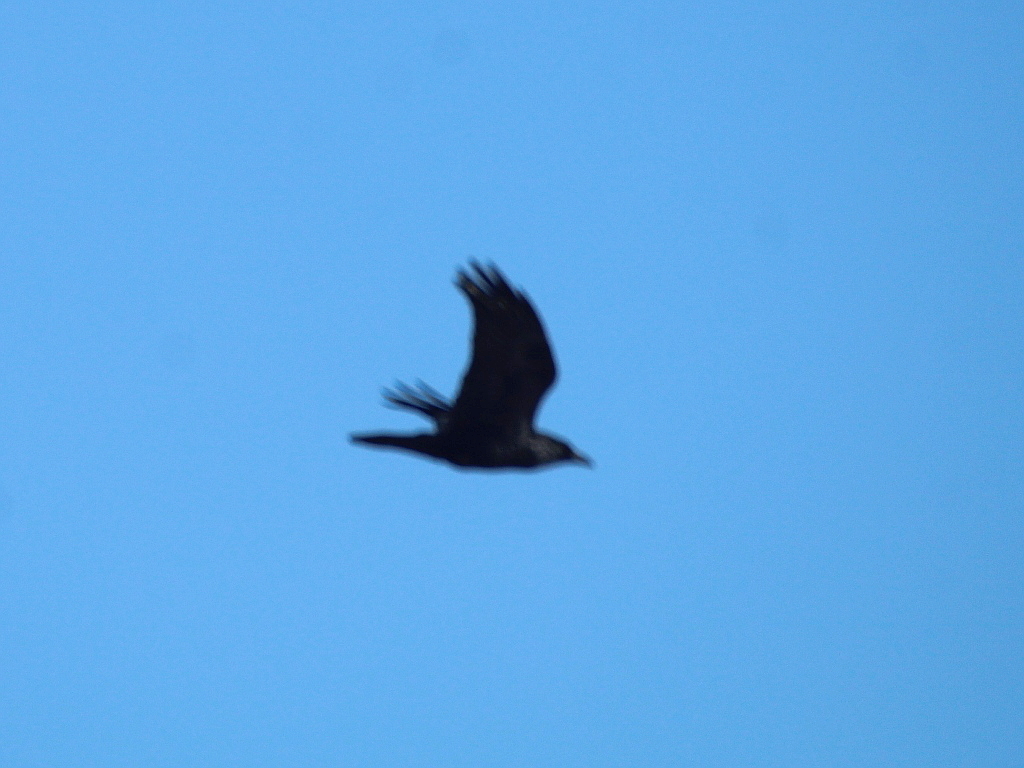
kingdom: Animalia
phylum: Chordata
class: Aves
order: Passeriformes
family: Corvidae
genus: Corvus
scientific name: Corvus corax
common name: Common raven
